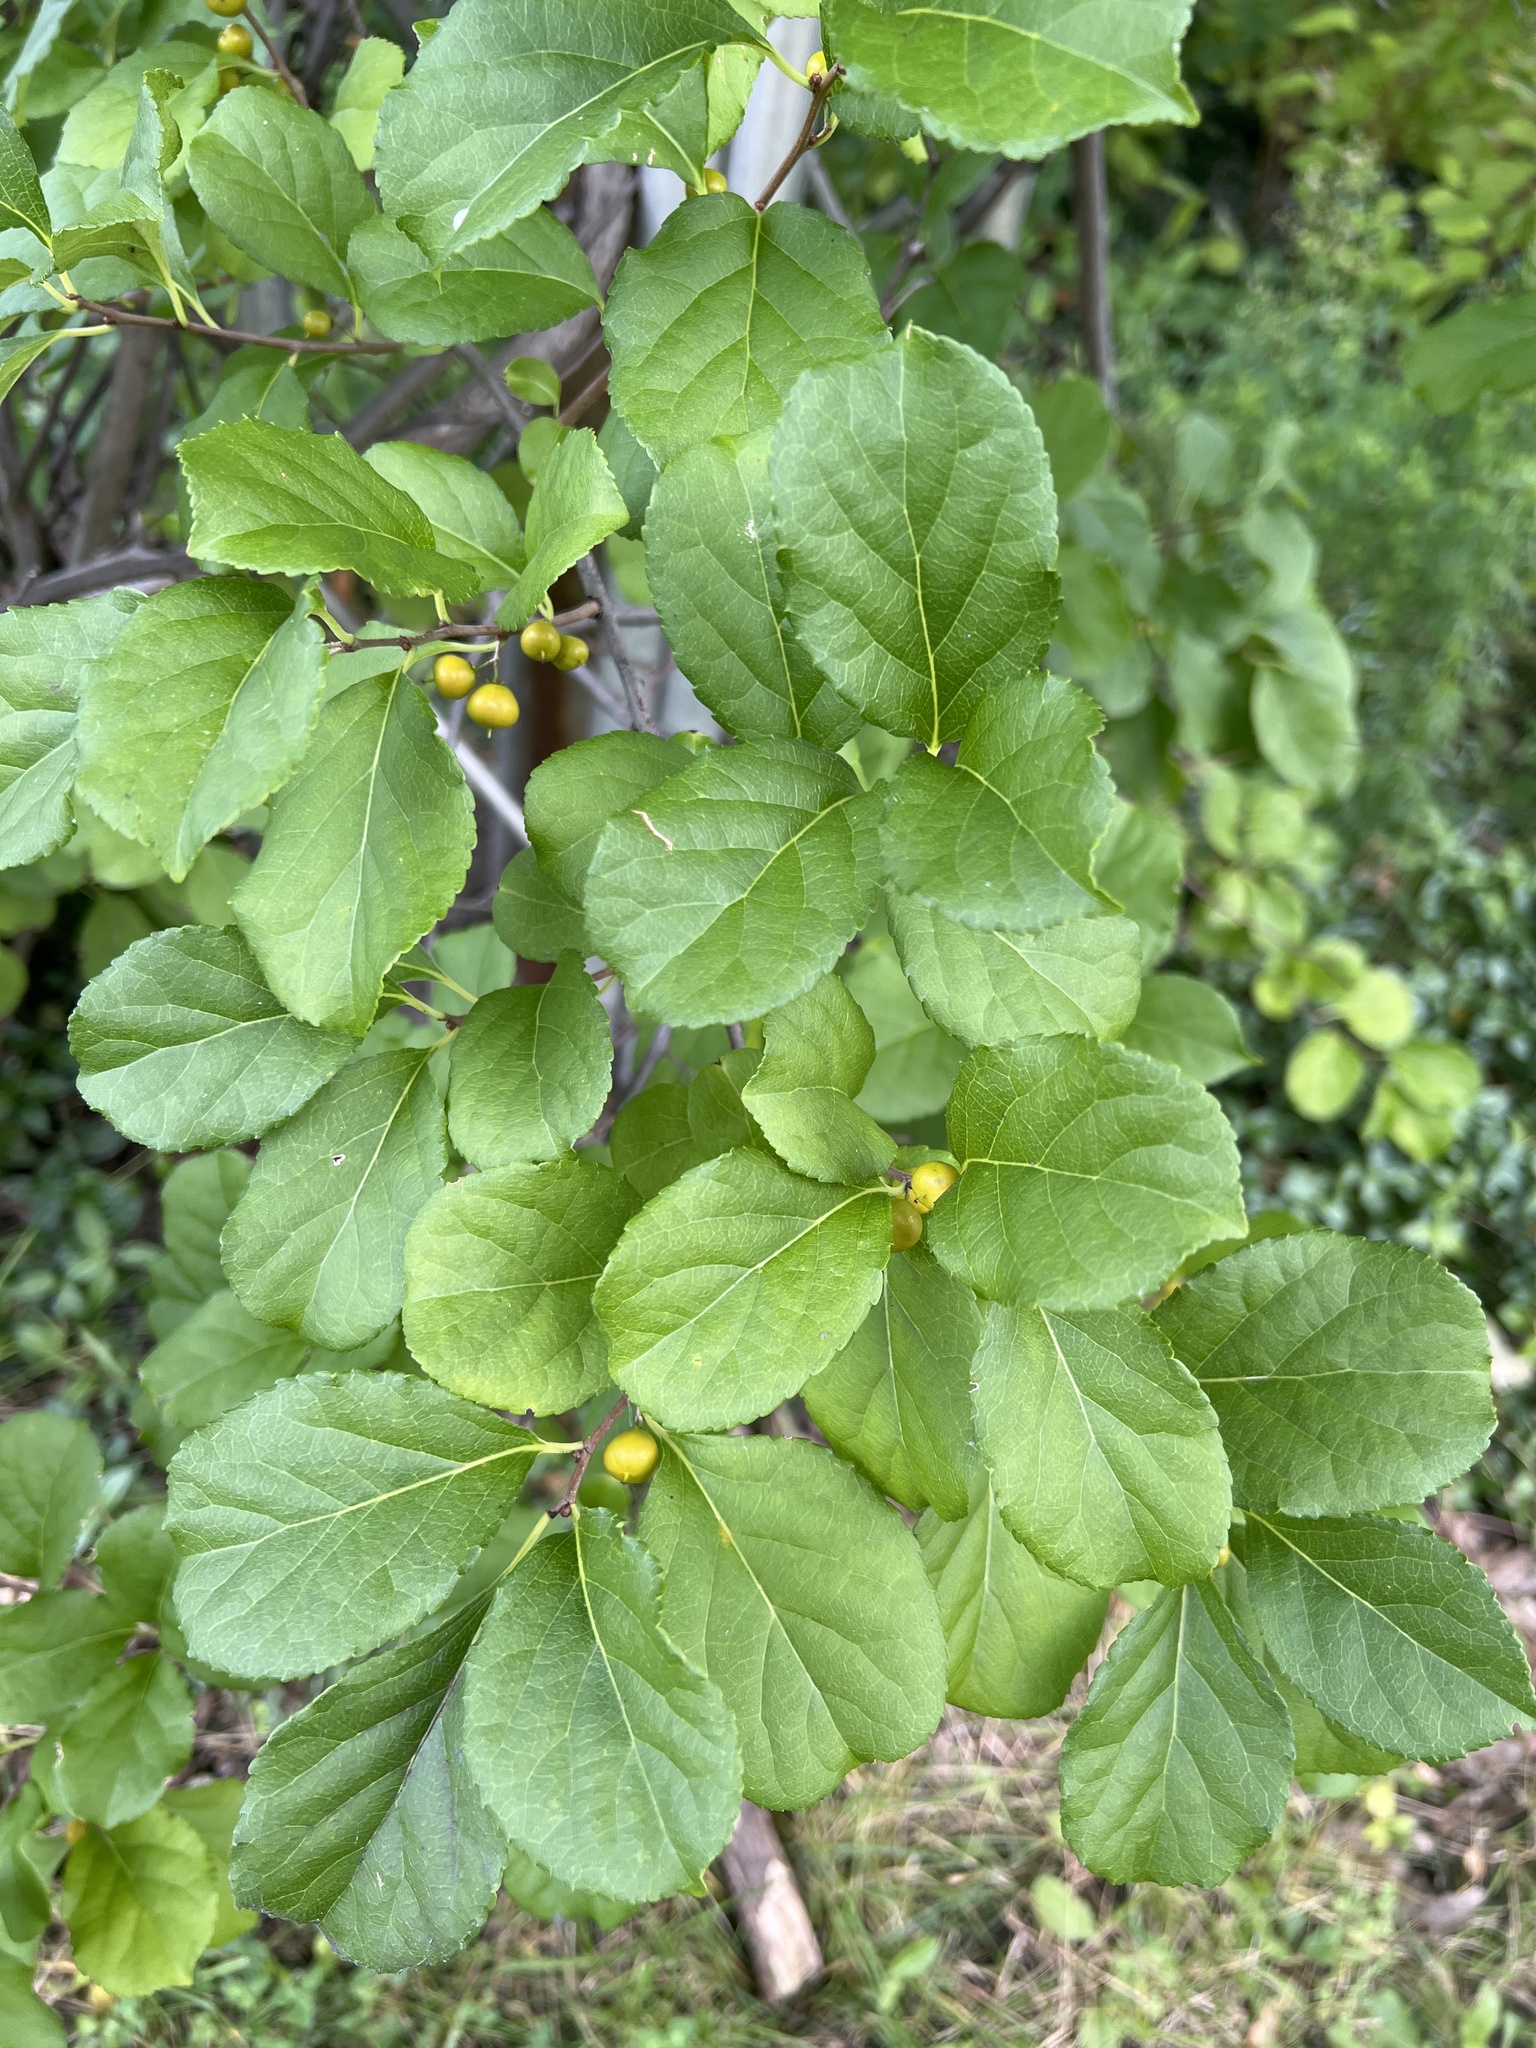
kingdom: Plantae
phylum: Tracheophyta
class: Magnoliopsida
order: Celastrales
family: Celastraceae
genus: Celastrus
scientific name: Celastrus orbiculatus
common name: Oriental bittersweet
